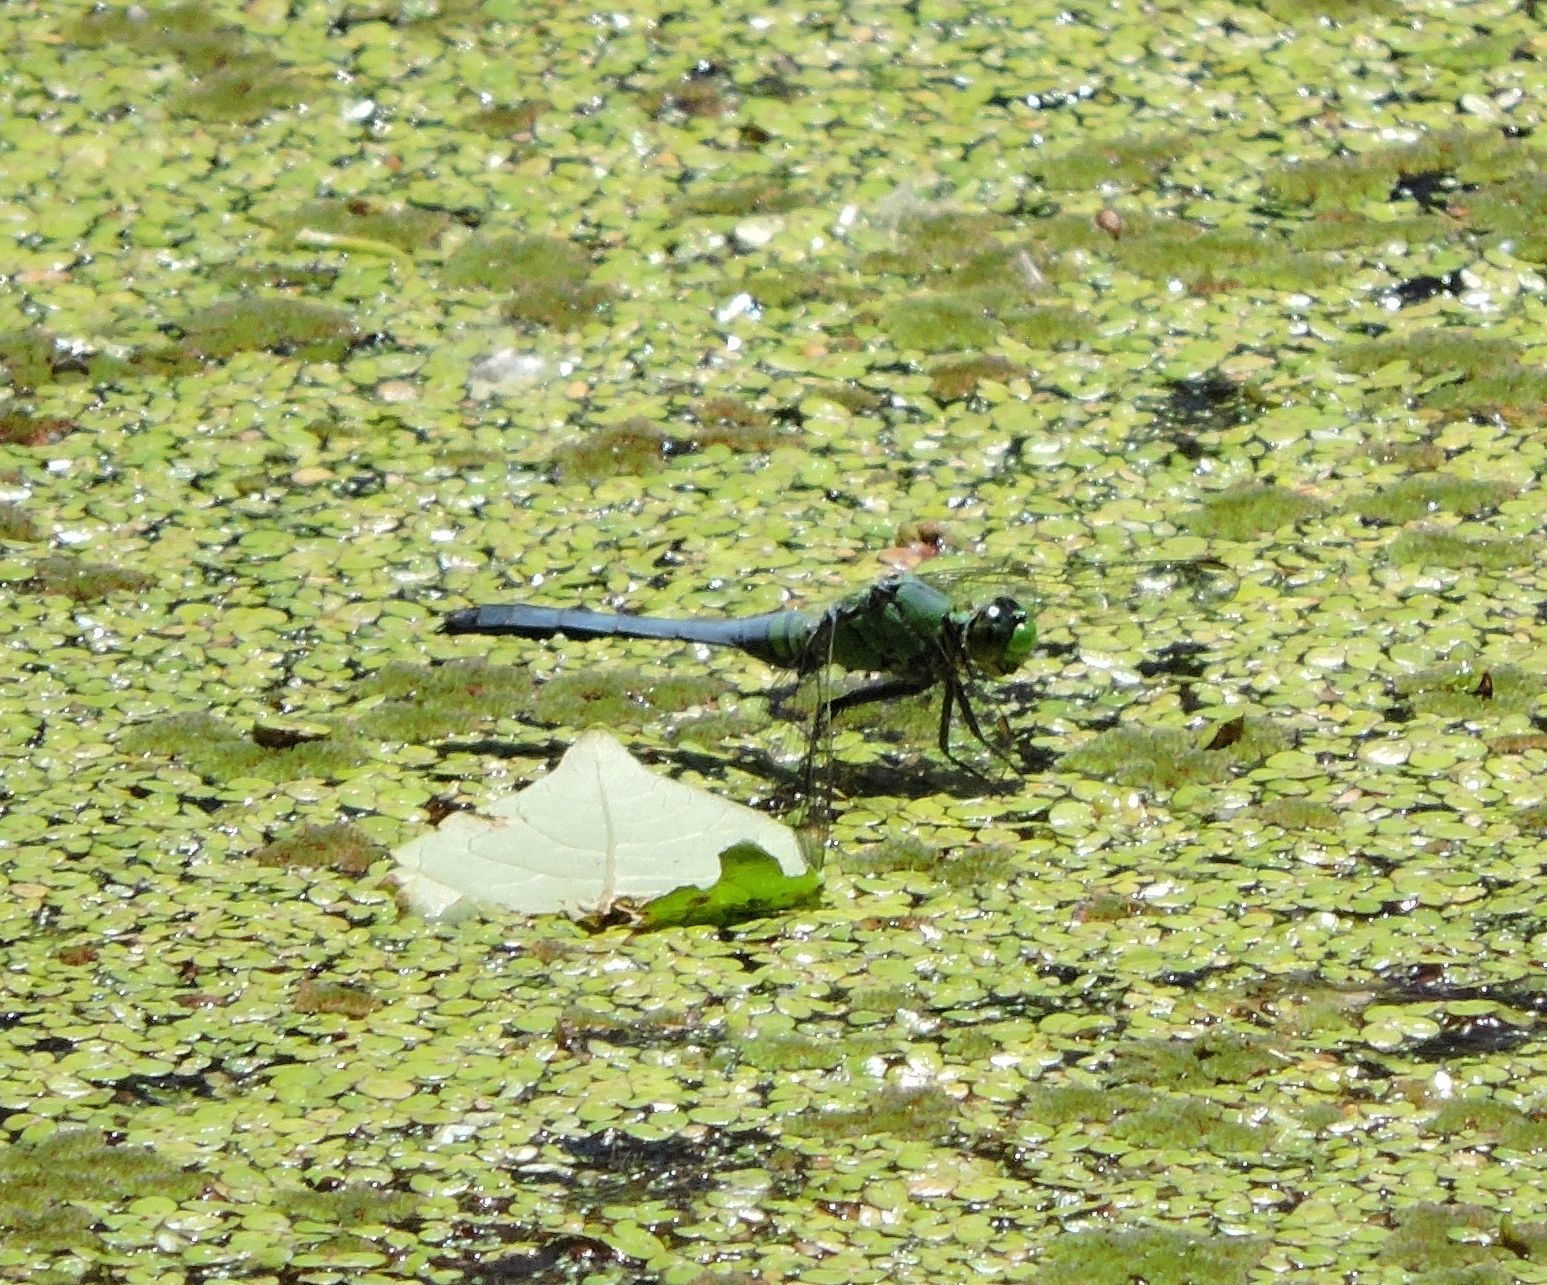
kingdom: Animalia
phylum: Arthropoda
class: Insecta
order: Odonata
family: Libellulidae
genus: Erythemis
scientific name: Erythemis simplicicollis
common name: Eastern pondhawk
